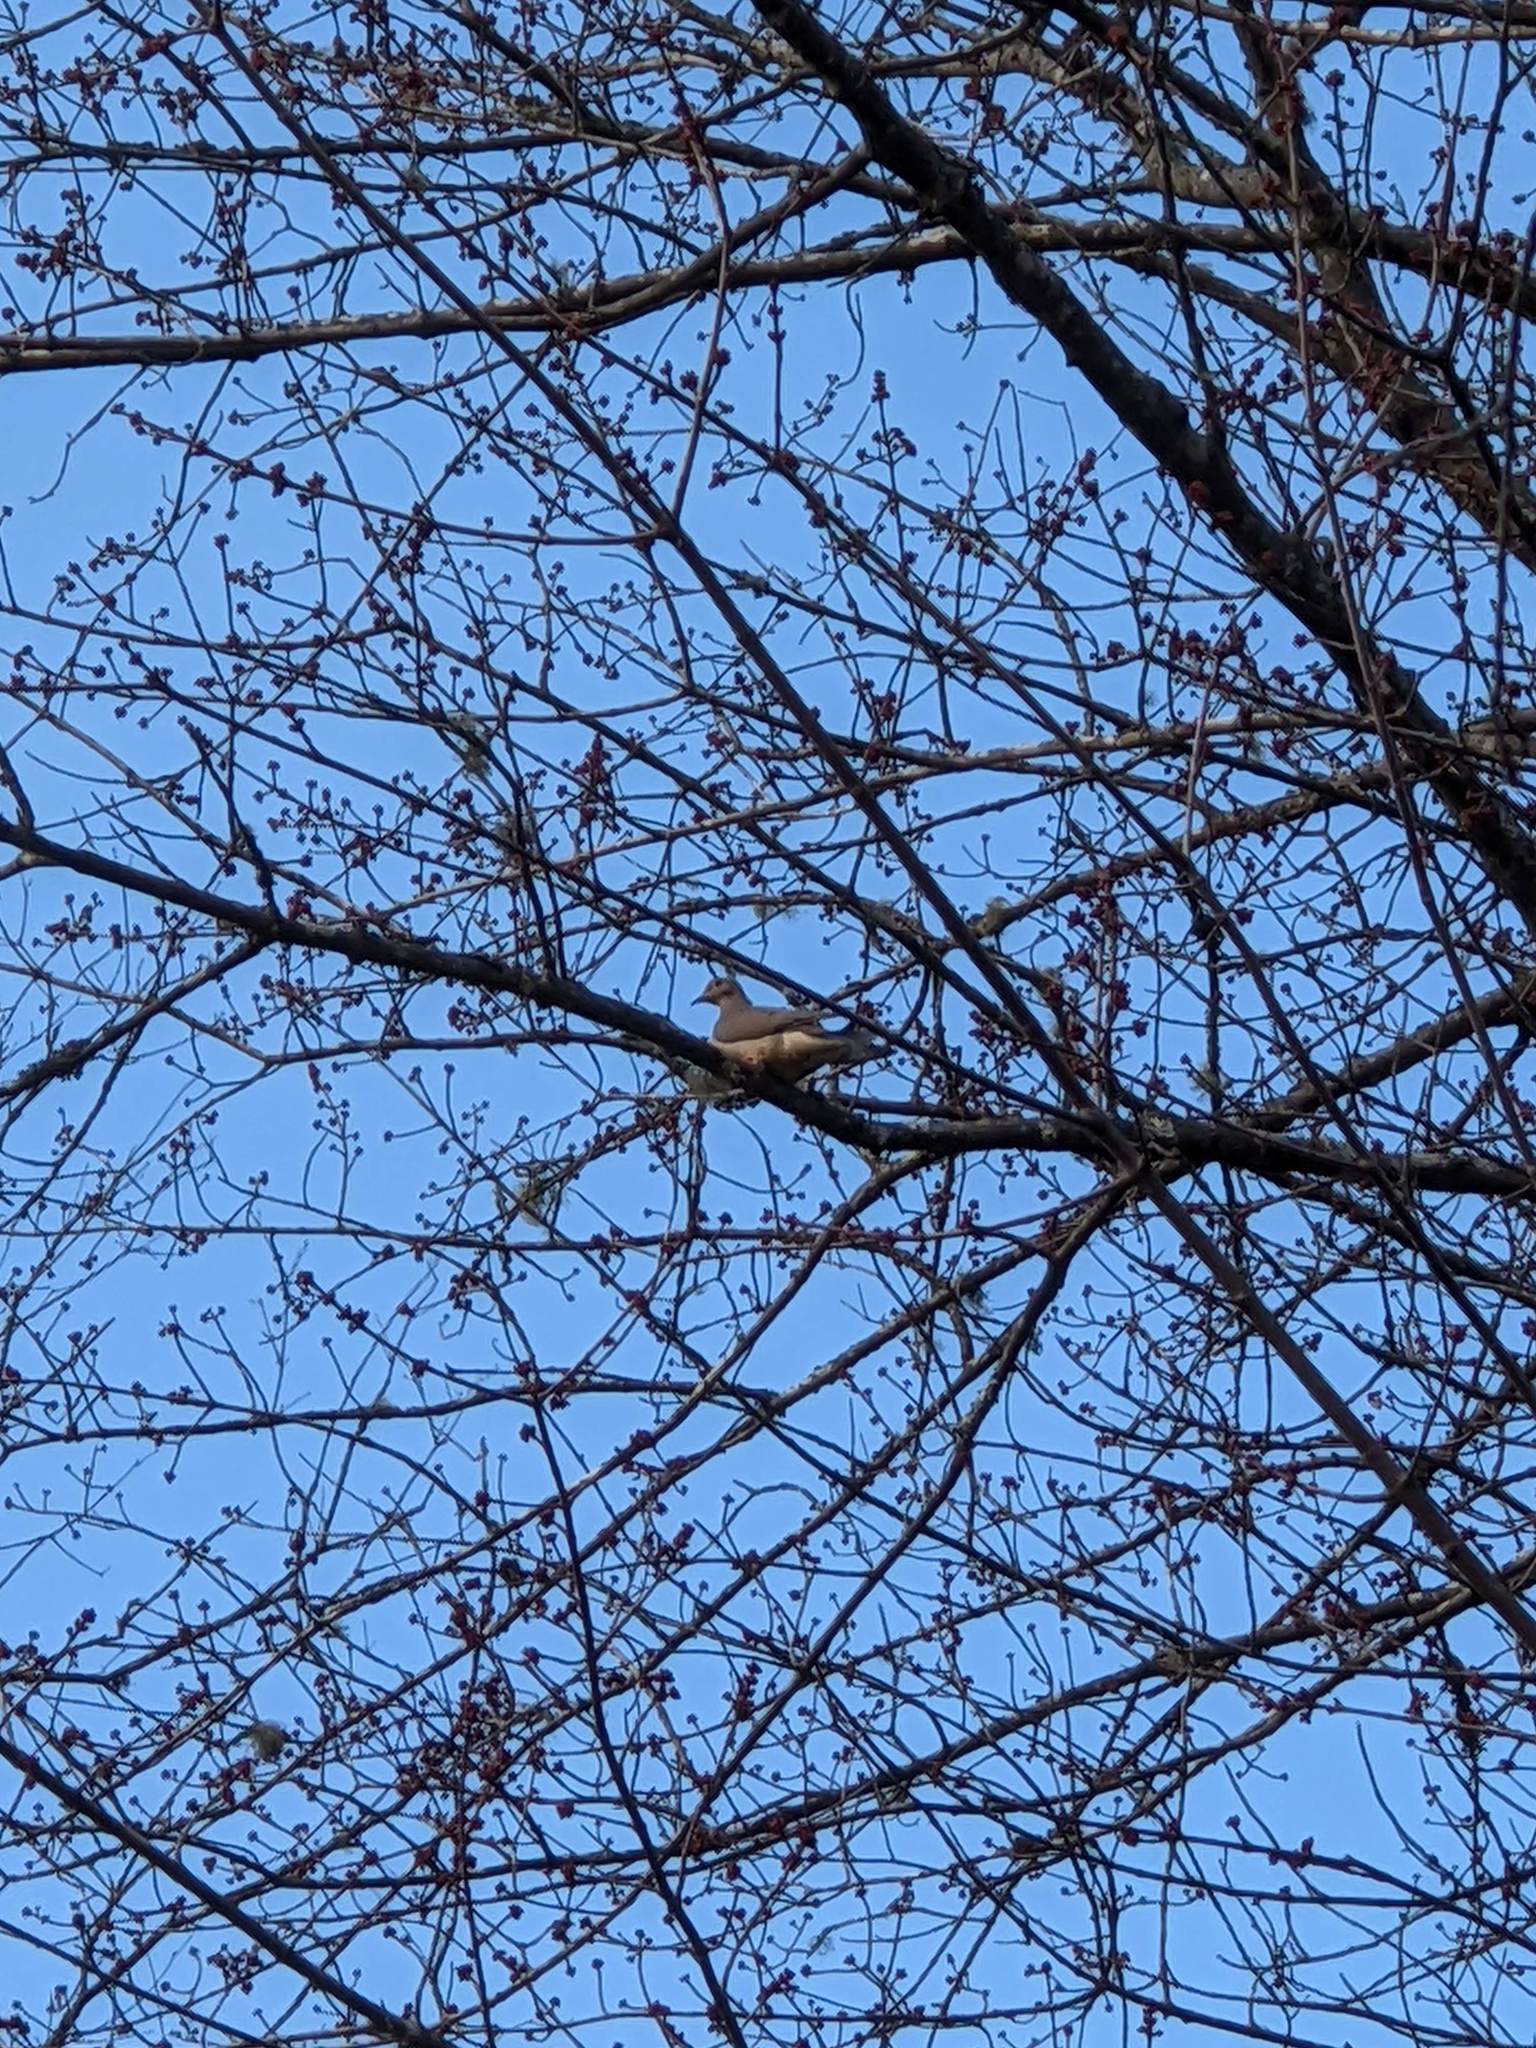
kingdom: Animalia
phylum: Chordata
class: Aves
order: Columbiformes
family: Columbidae
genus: Zenaida
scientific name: Zenaida macroura
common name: Mourning dove
